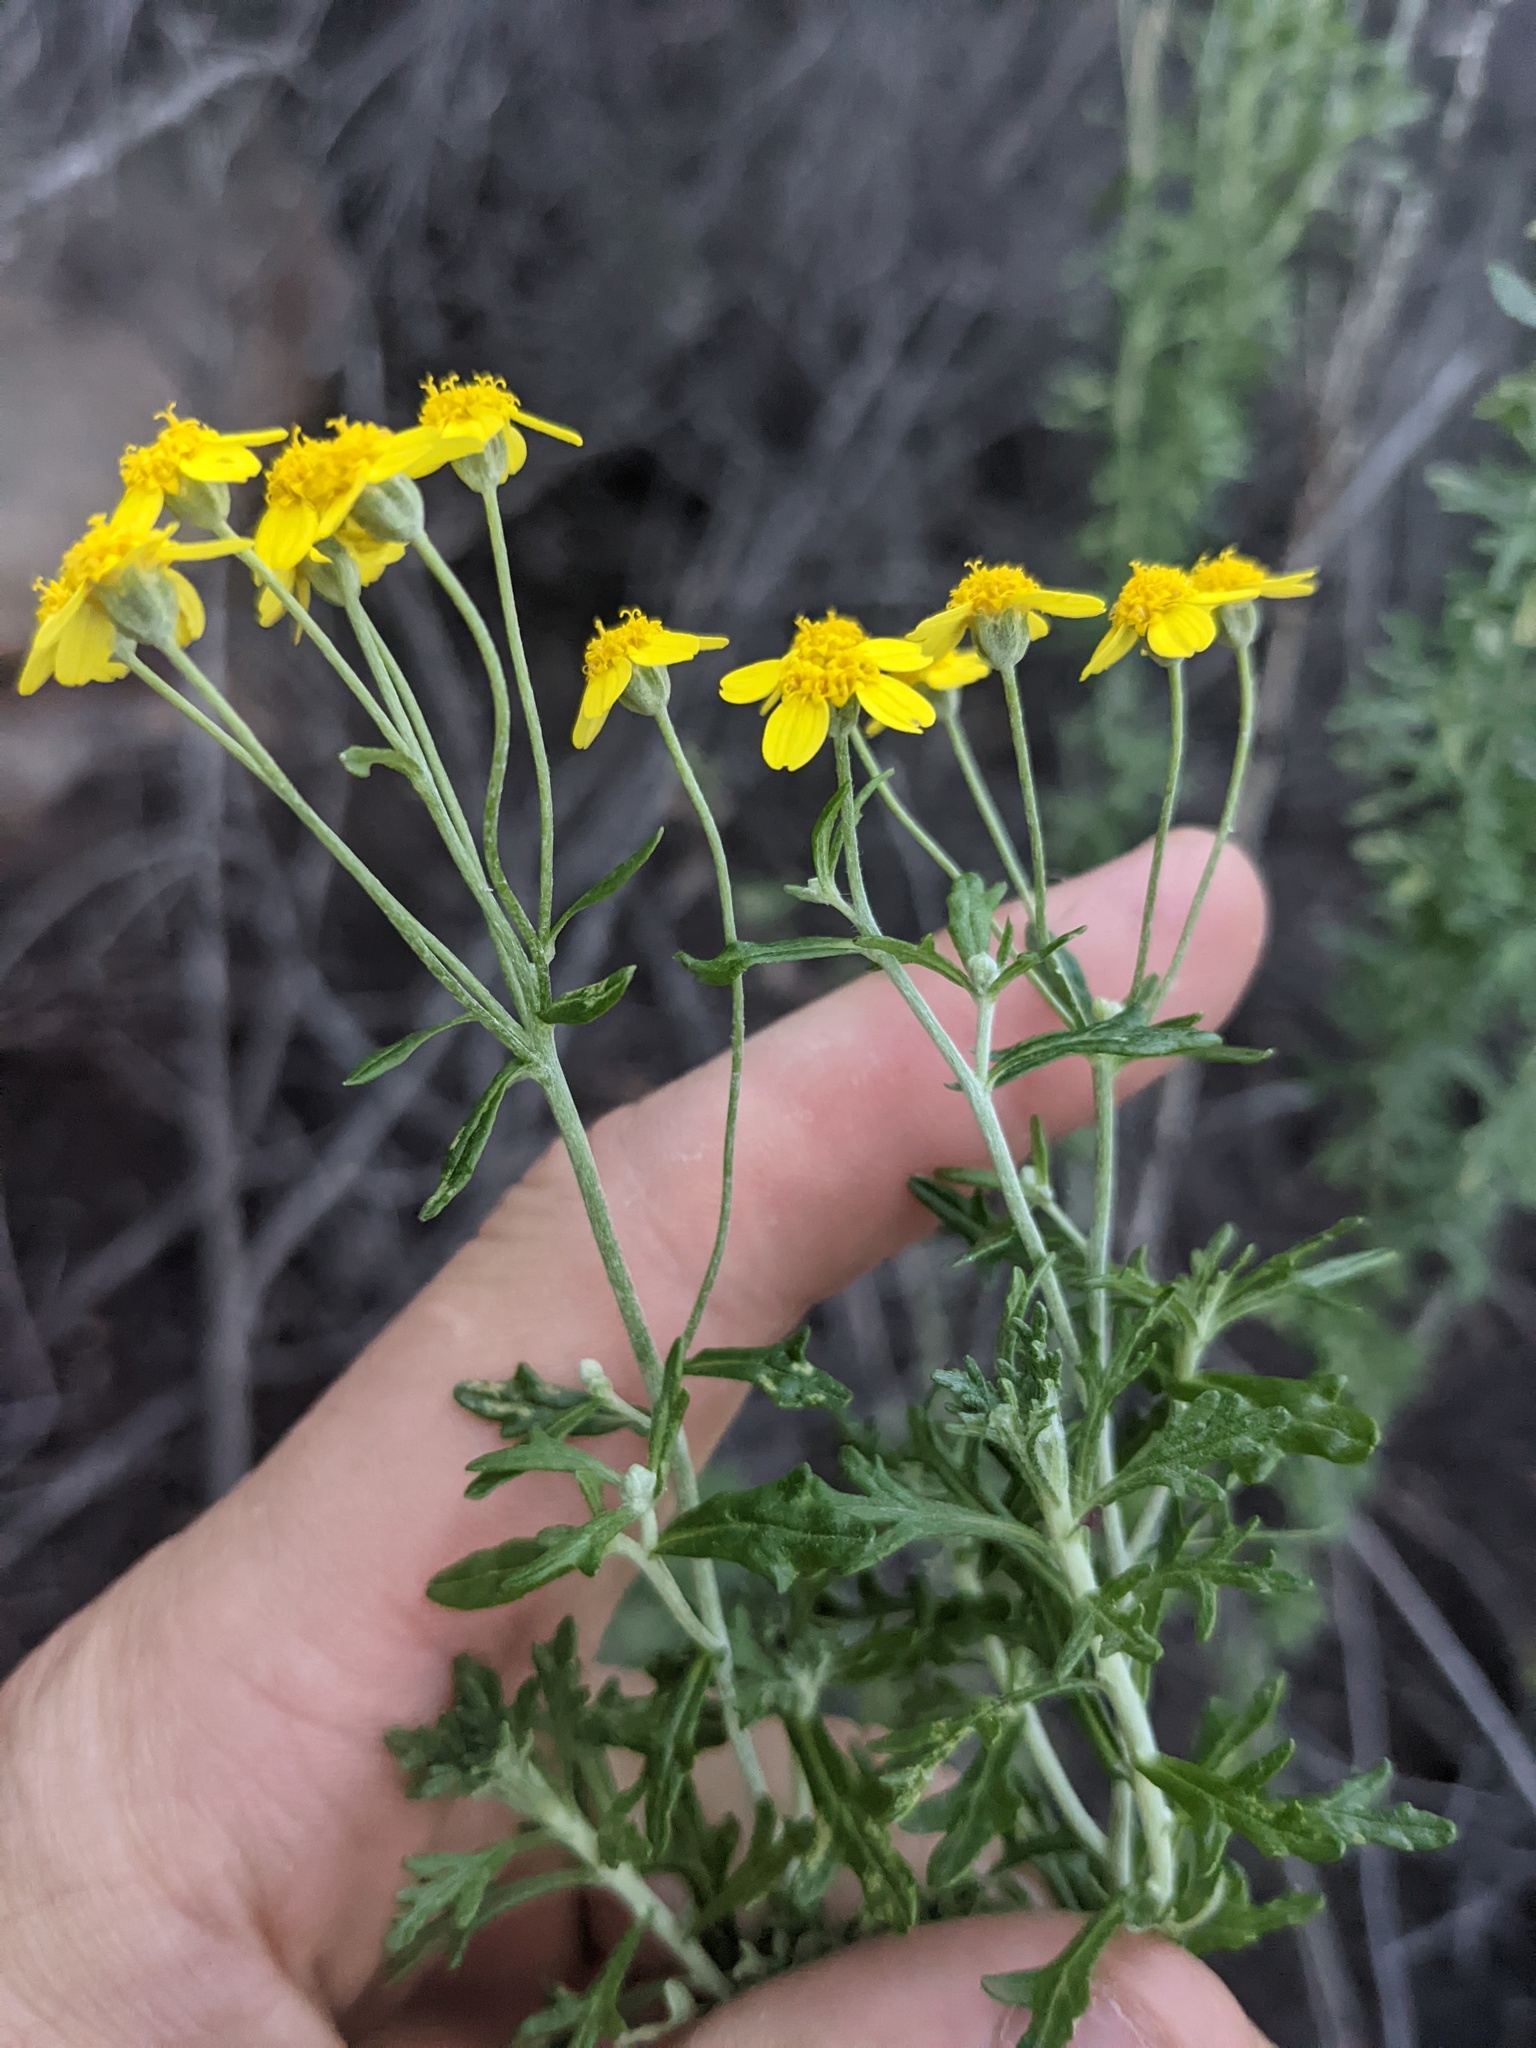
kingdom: Plantae
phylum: Tracheophyta
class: Magnoliopsida
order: Asterales
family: Asteraceae
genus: Eriophyllum
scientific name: Eriophyllum confertiflorum
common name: Golden-yarrow
